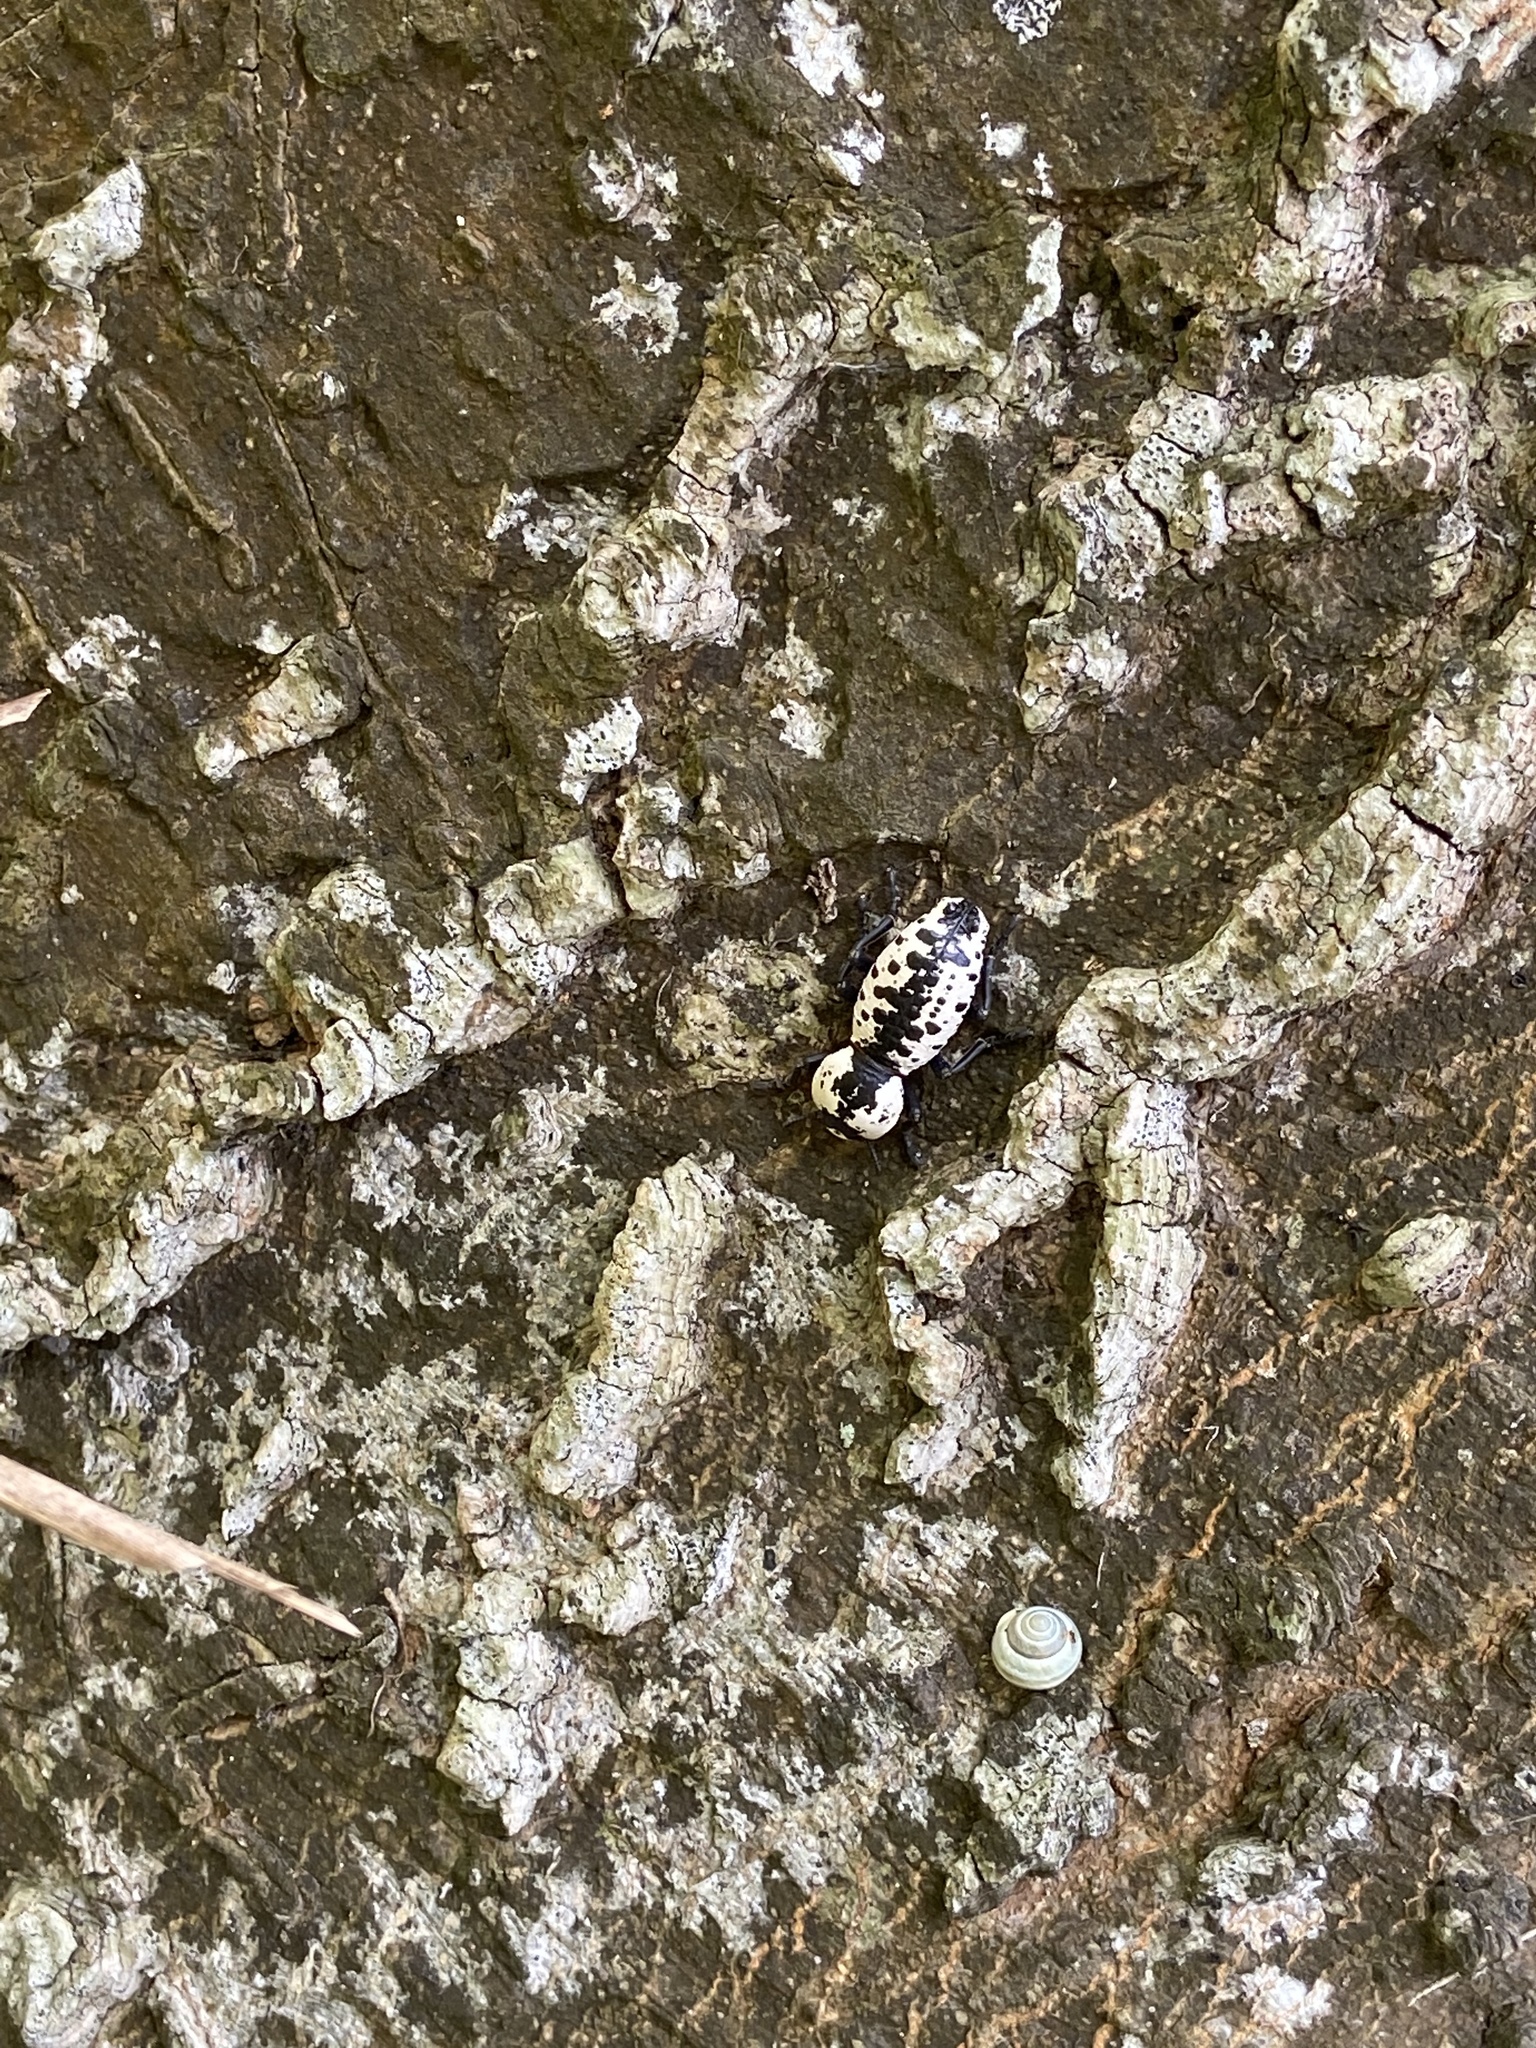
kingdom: Animalia
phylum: Arthropoda
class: Insecta
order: Coleoptera
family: Zopheridae
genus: Zopherus
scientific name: Zopherus nodulosus
